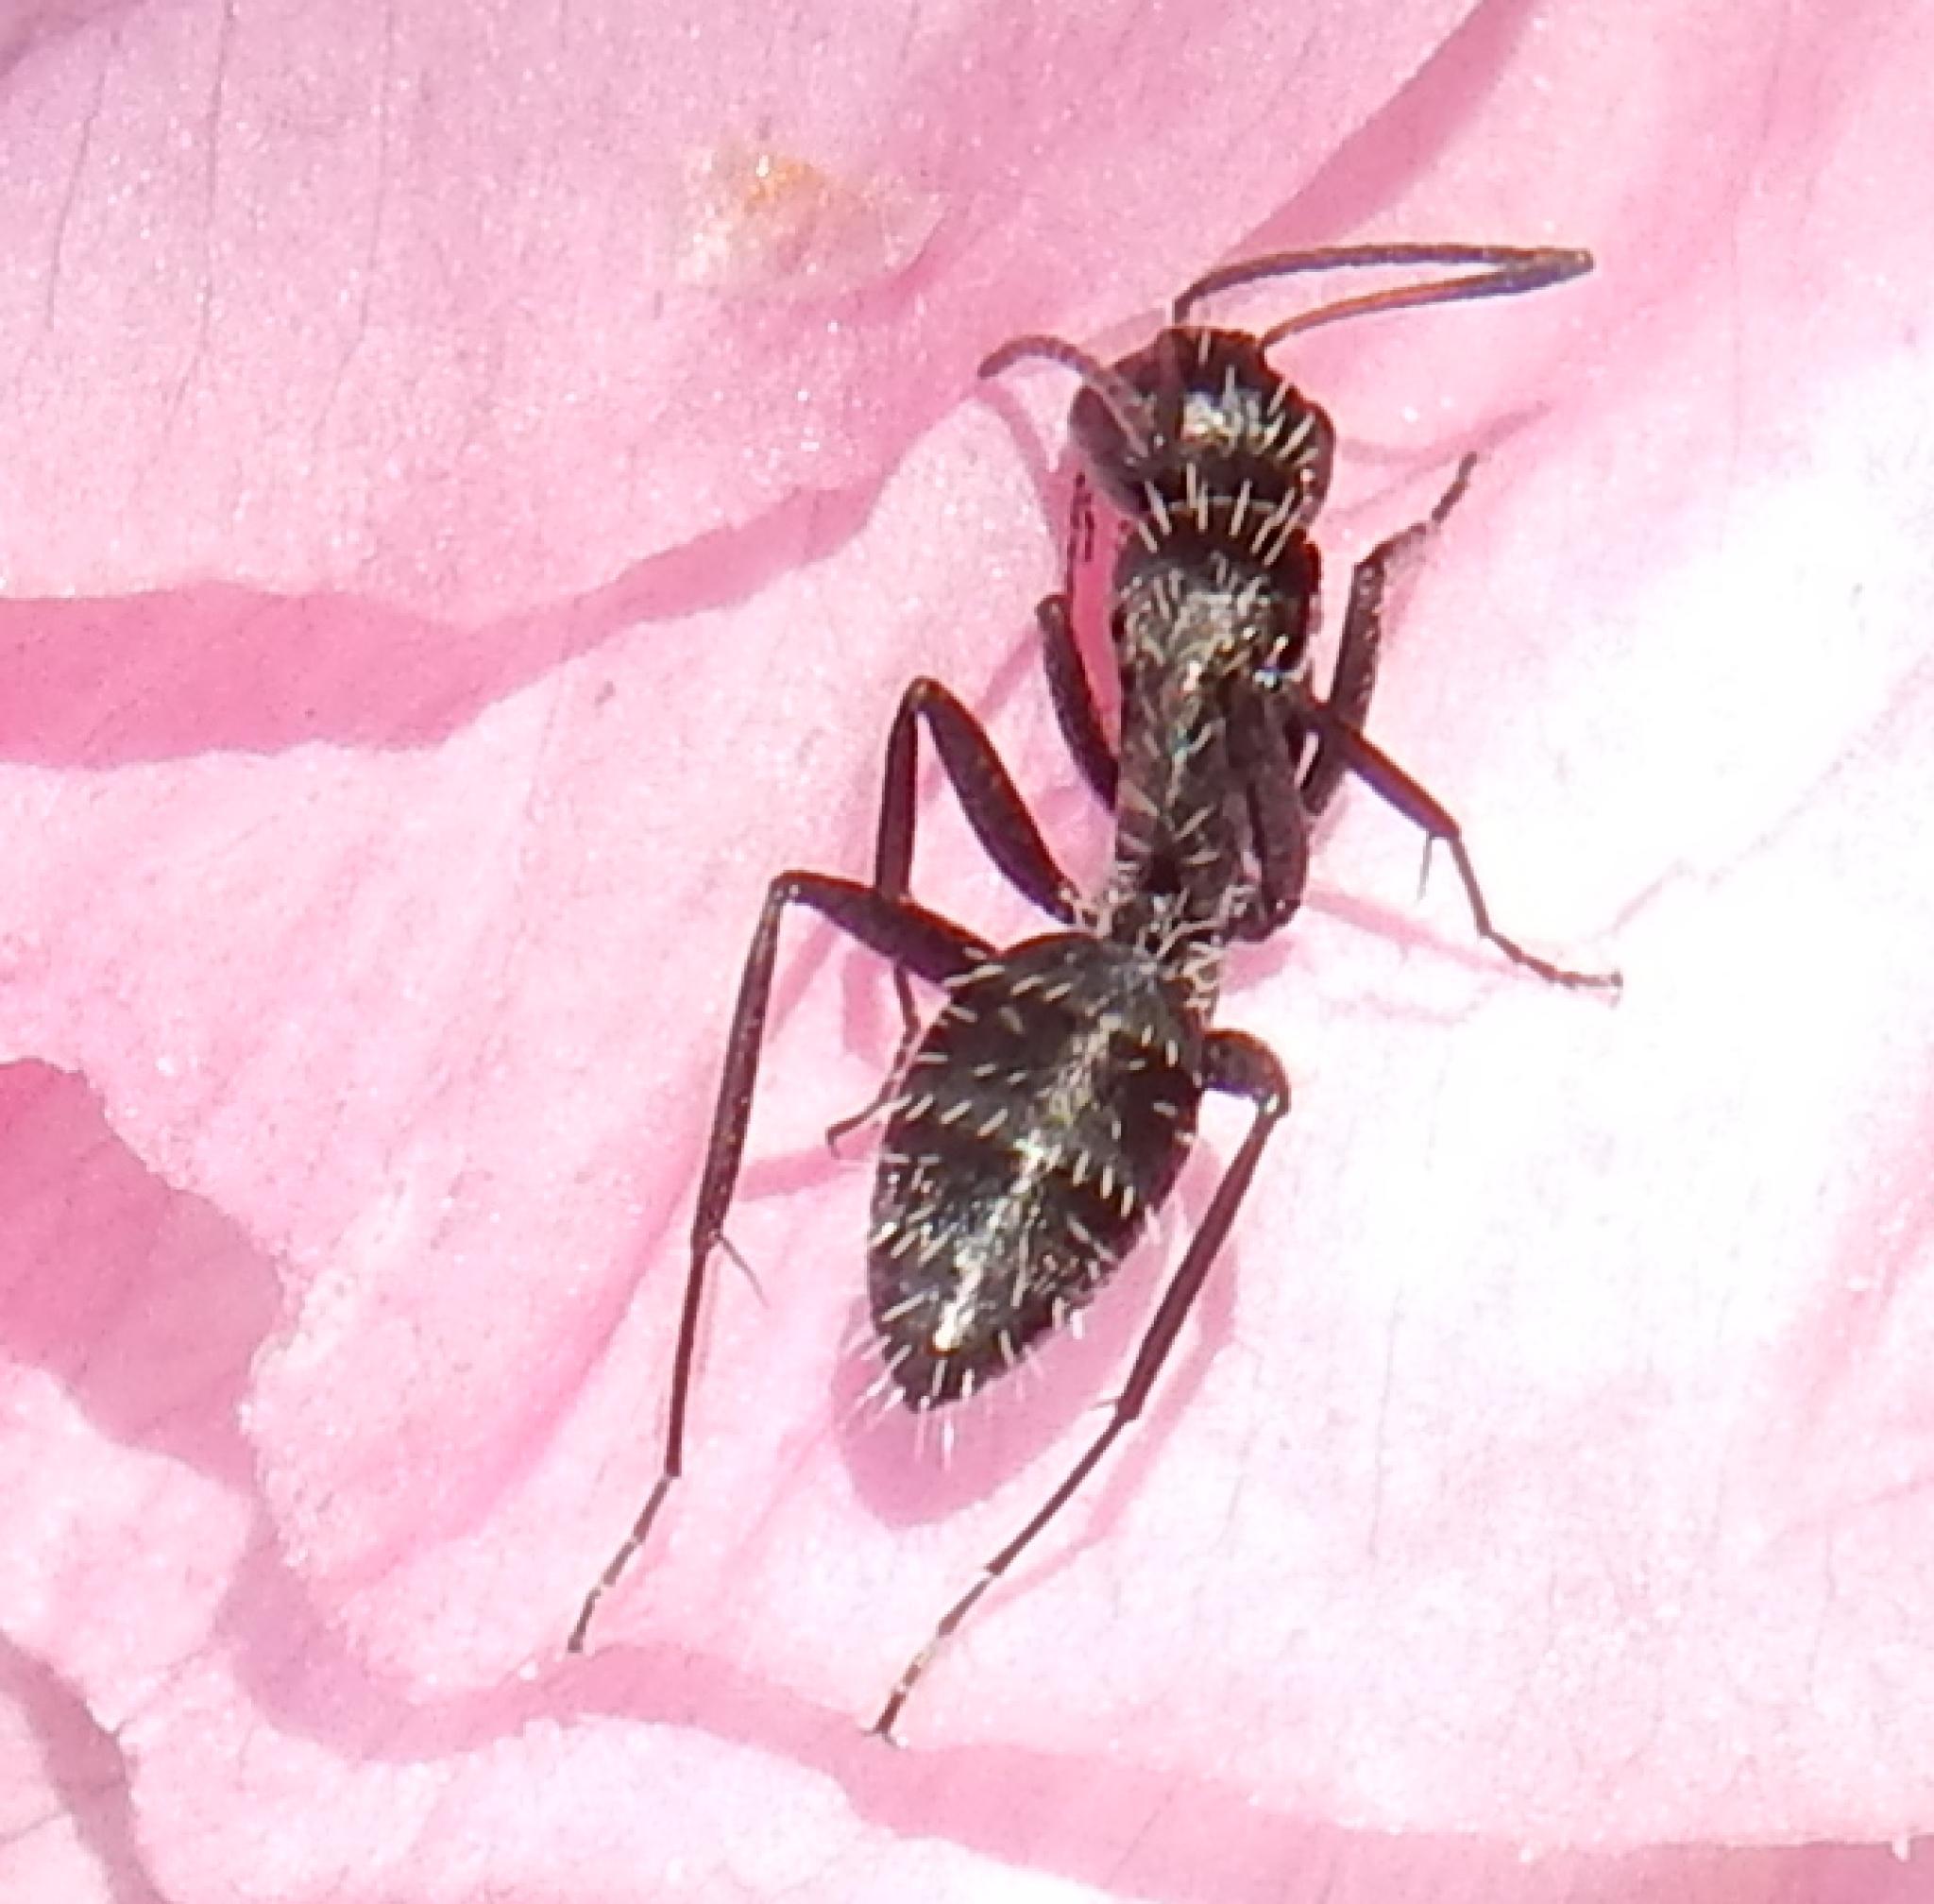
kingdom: Animalia
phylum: Arthropoda
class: Insecta
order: Hymenoptera
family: Formicidae
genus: Camponotus
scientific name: Camponotus niveosetosus
